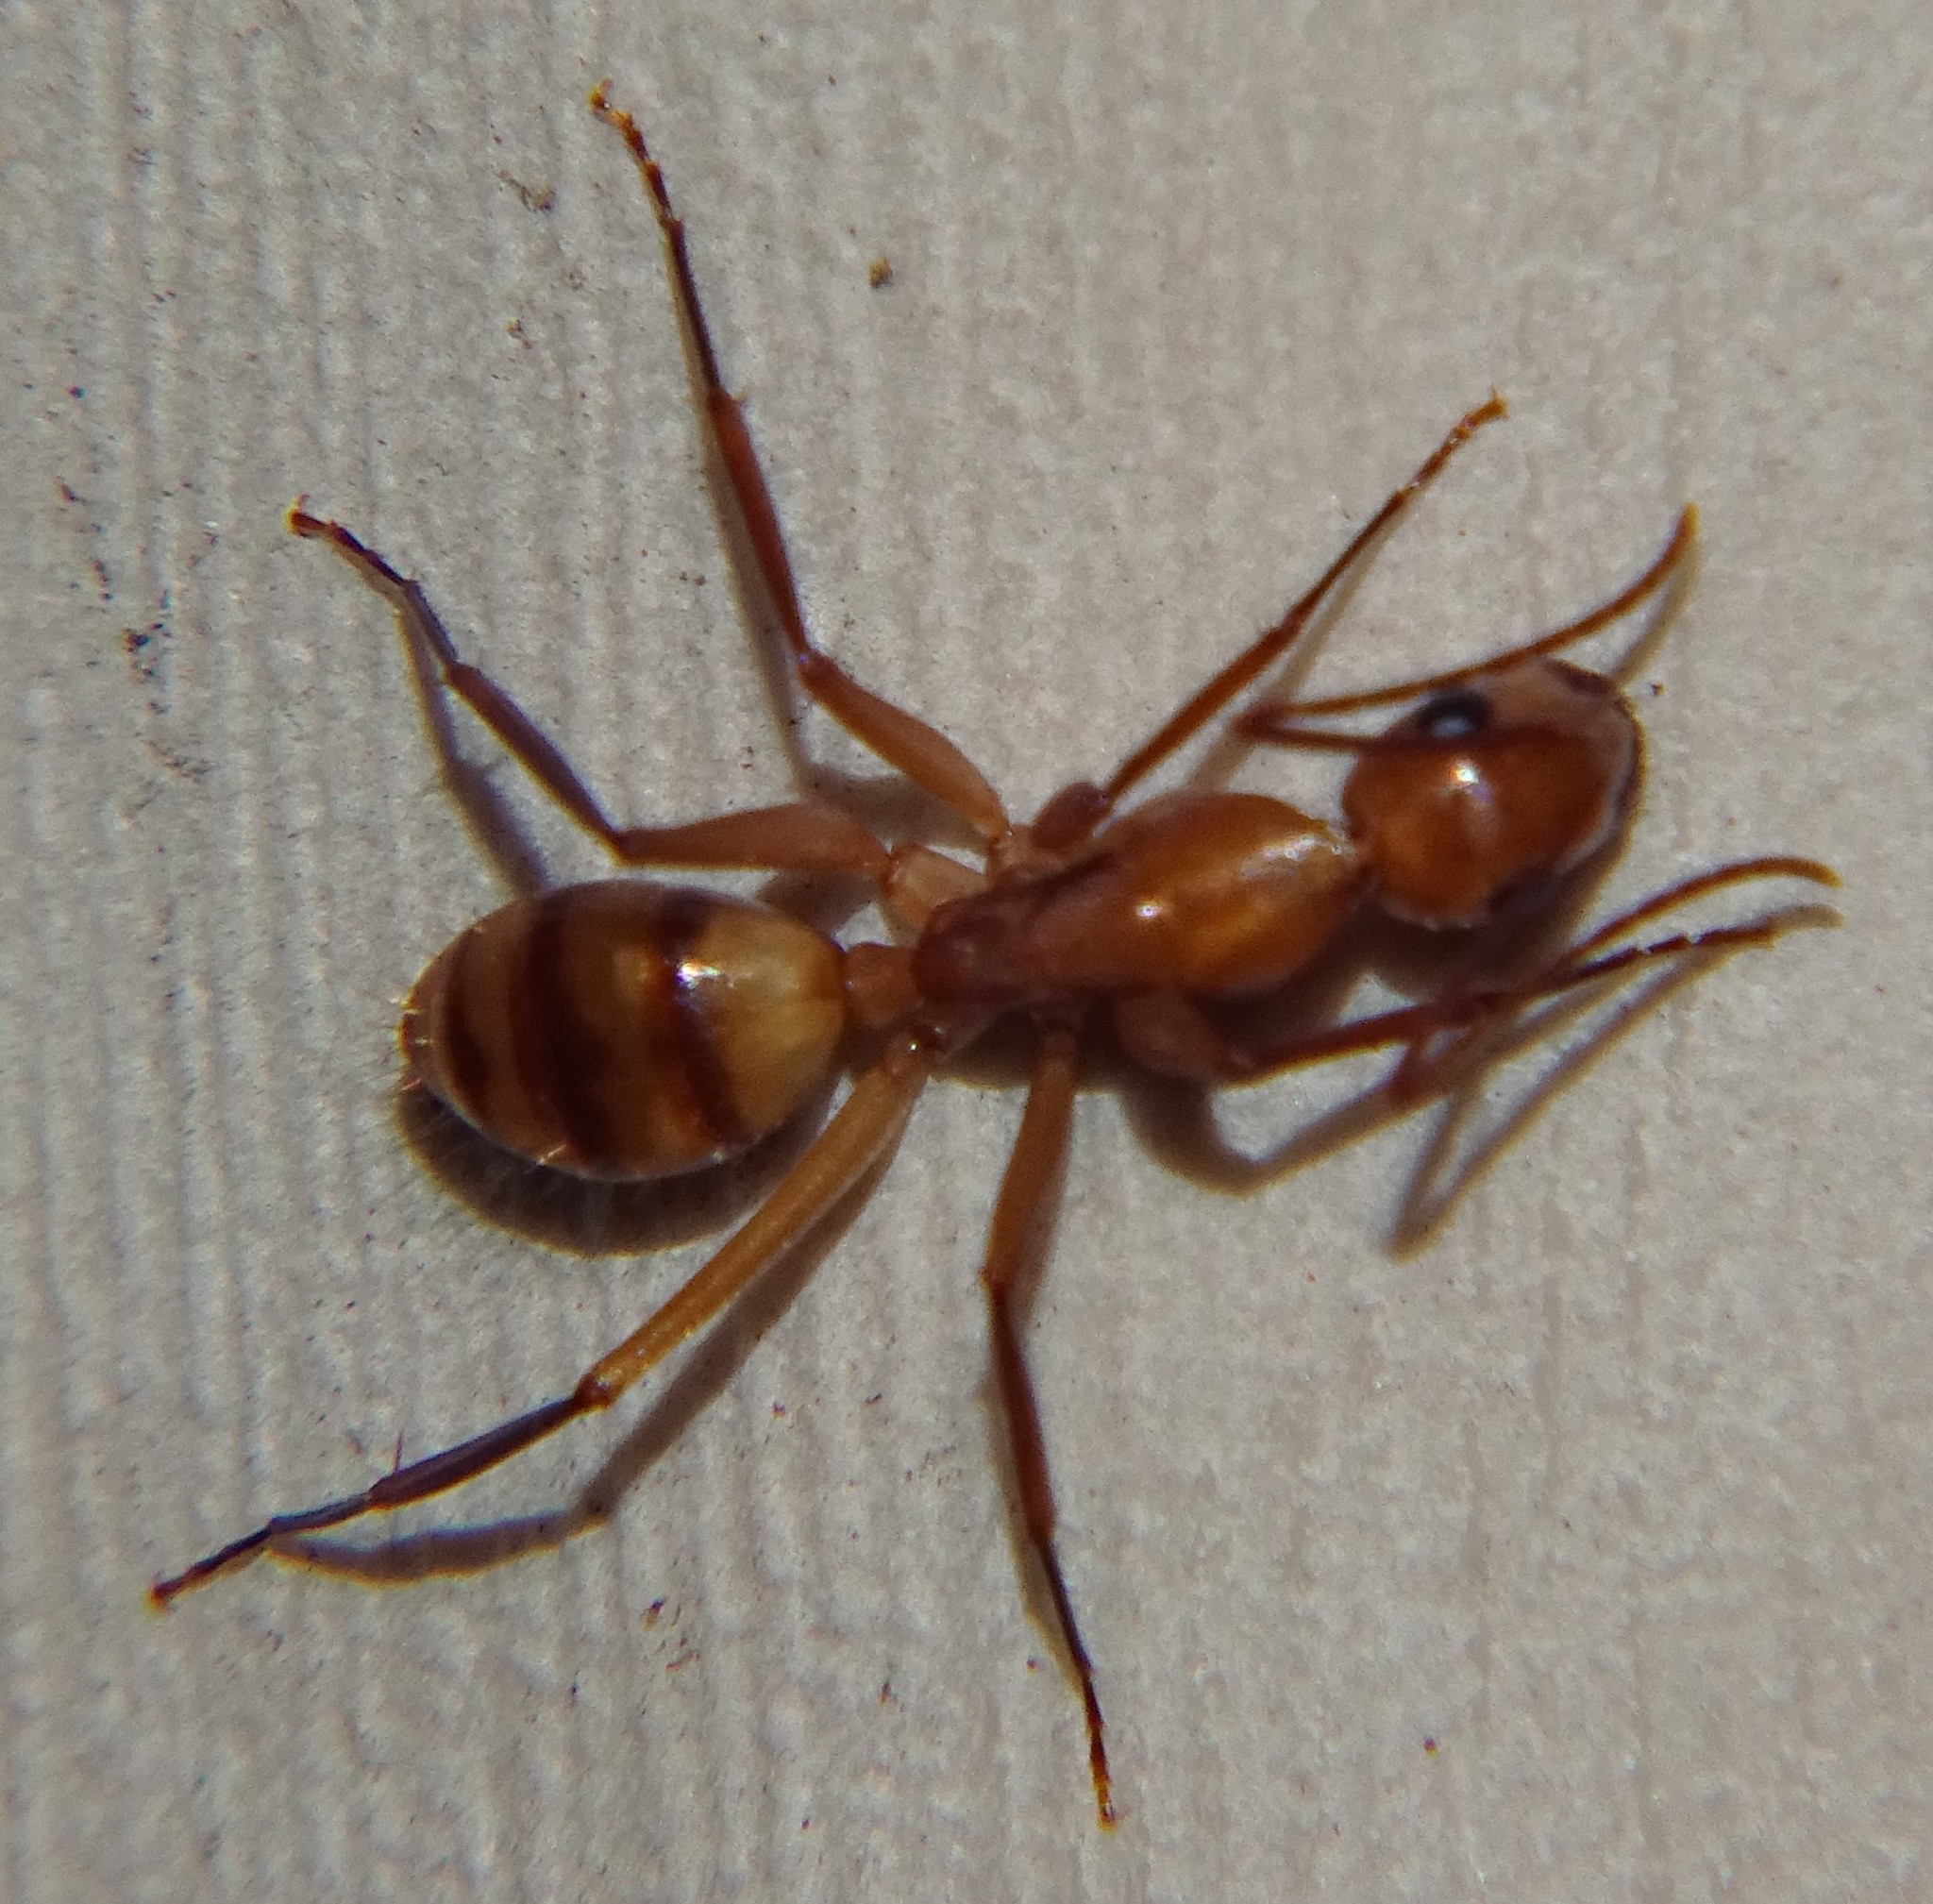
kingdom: Animalia
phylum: Arthropoda
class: Insecta
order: Hymenoptera
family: Formicidae
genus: Camponotus
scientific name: Camponotus variegatus
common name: Hawaiian carpenter ant
